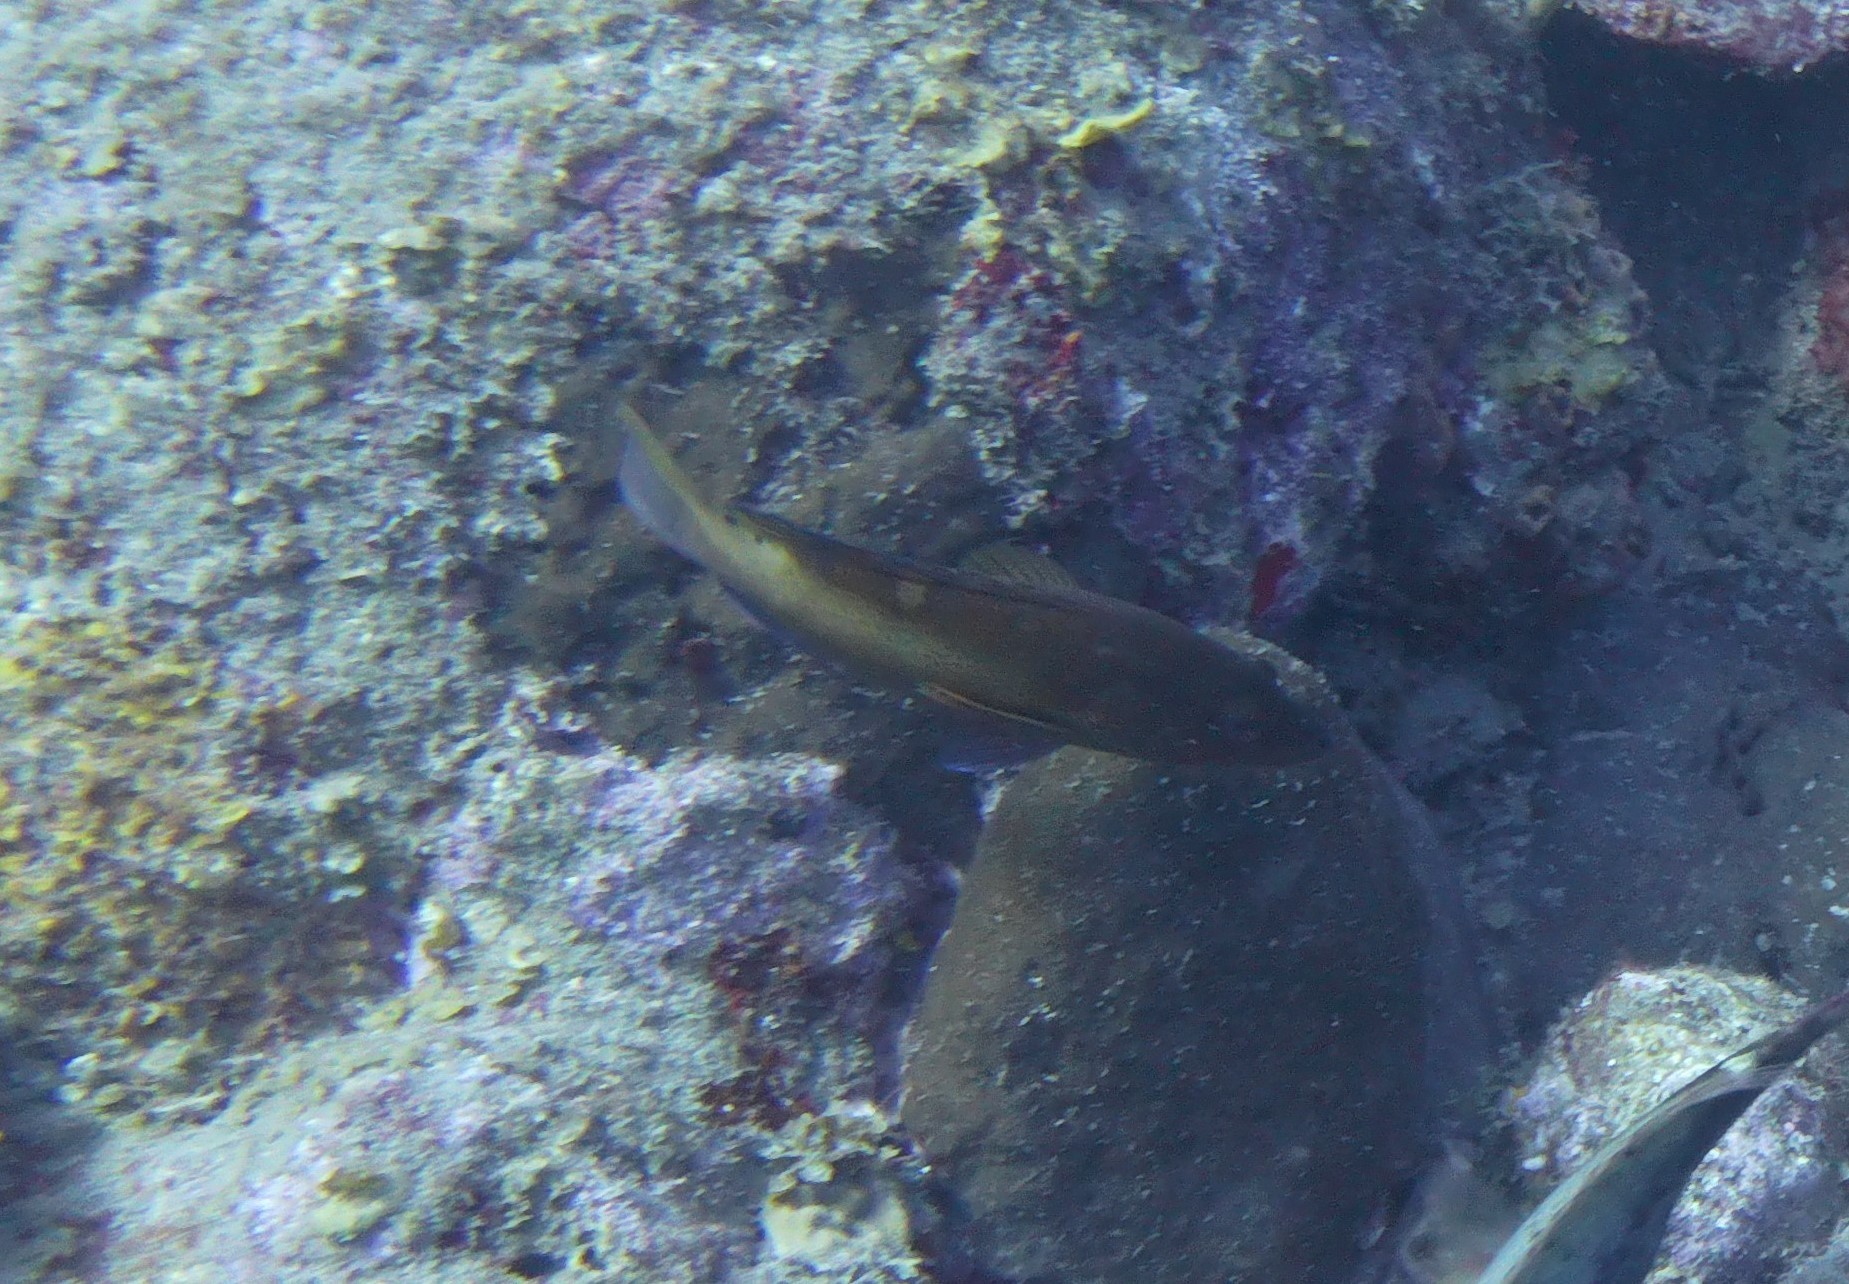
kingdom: Animalia
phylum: Chordata
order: Perciformes
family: Serranidae
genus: Cephalopholis
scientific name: Cephalopholis fulva
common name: Butterfish
